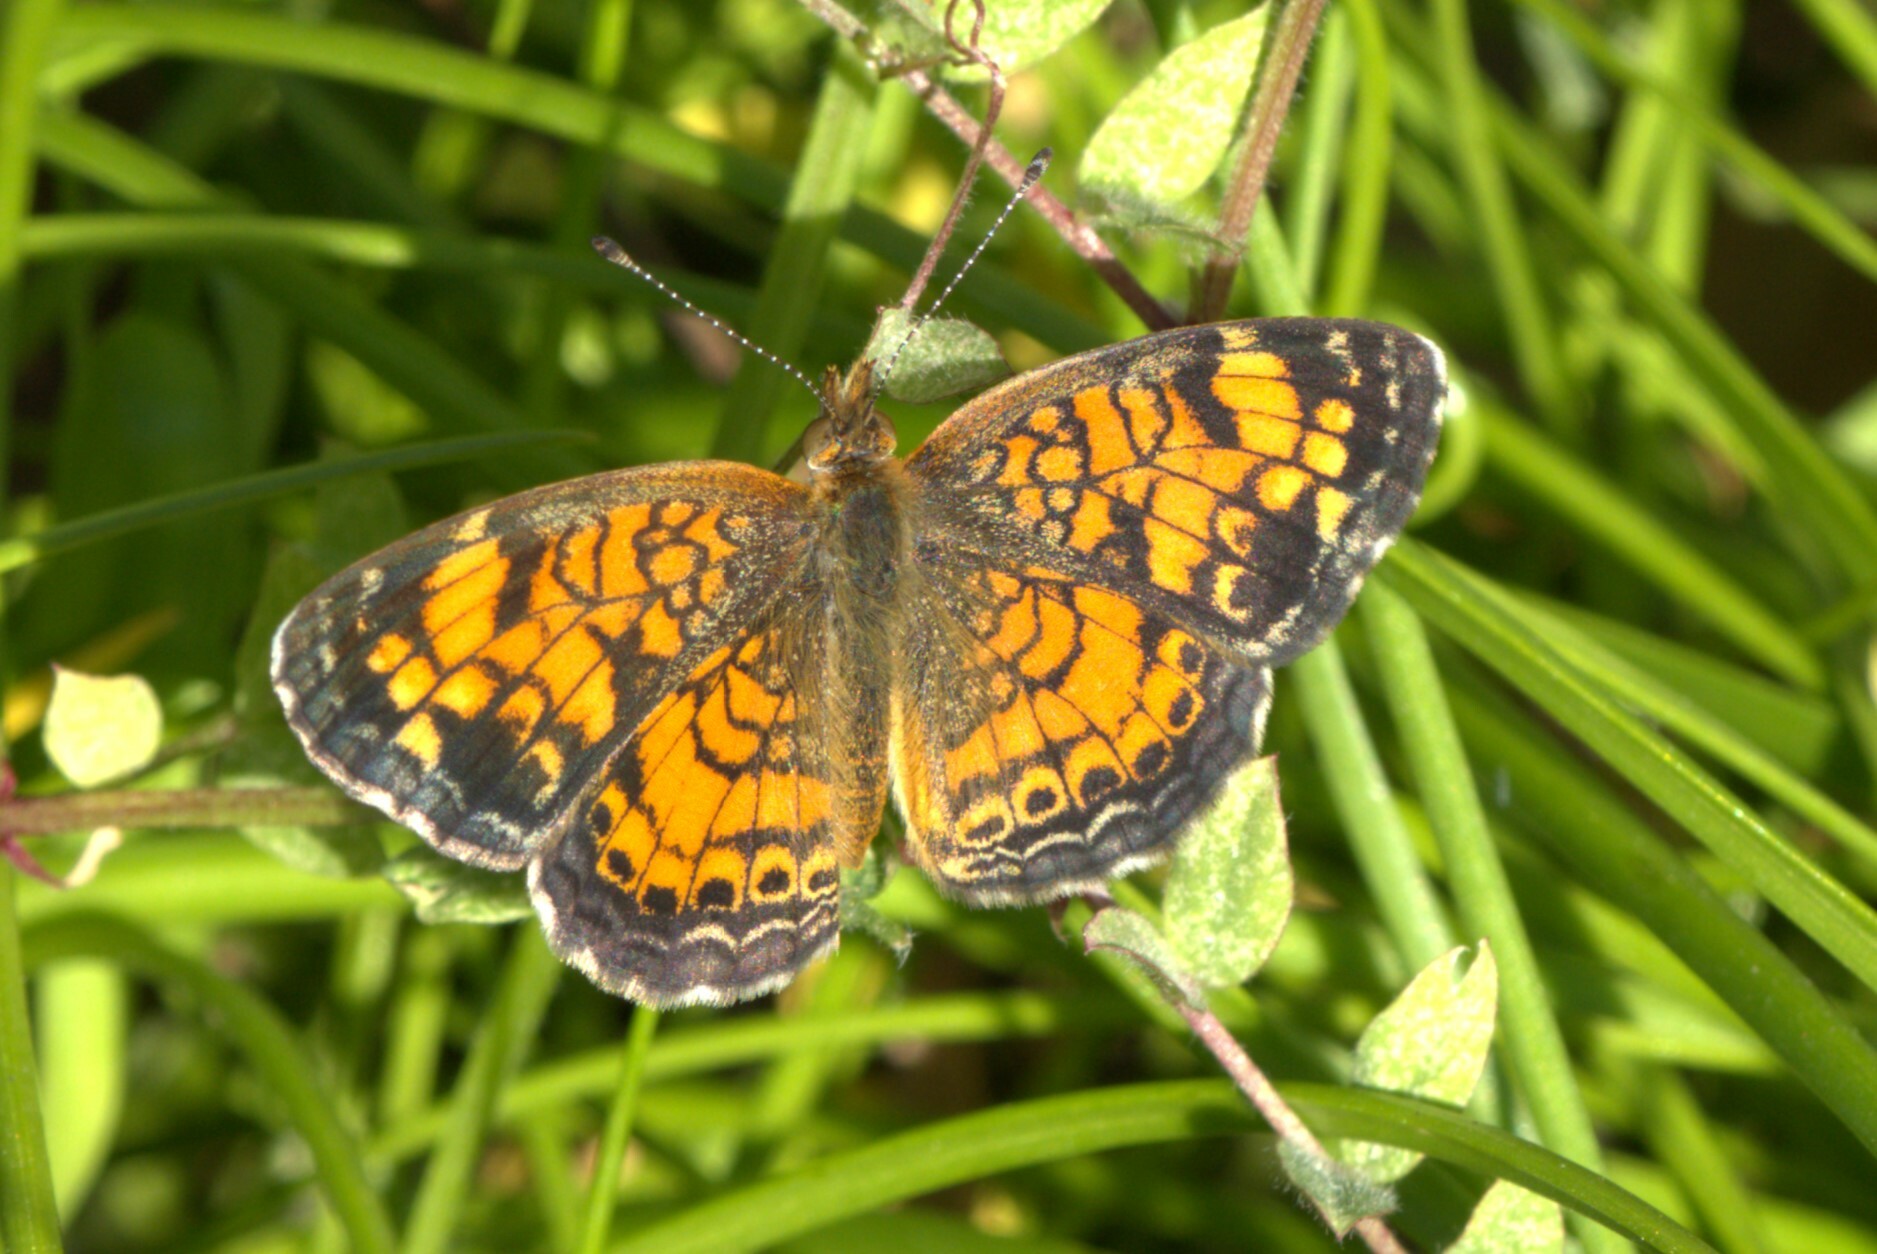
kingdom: Animalia
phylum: Arthropoda
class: Insecta
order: Lepidoptera
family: Nymphalidae
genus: Phyciodes
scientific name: Phyciodes tharos
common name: Pearl crescent
